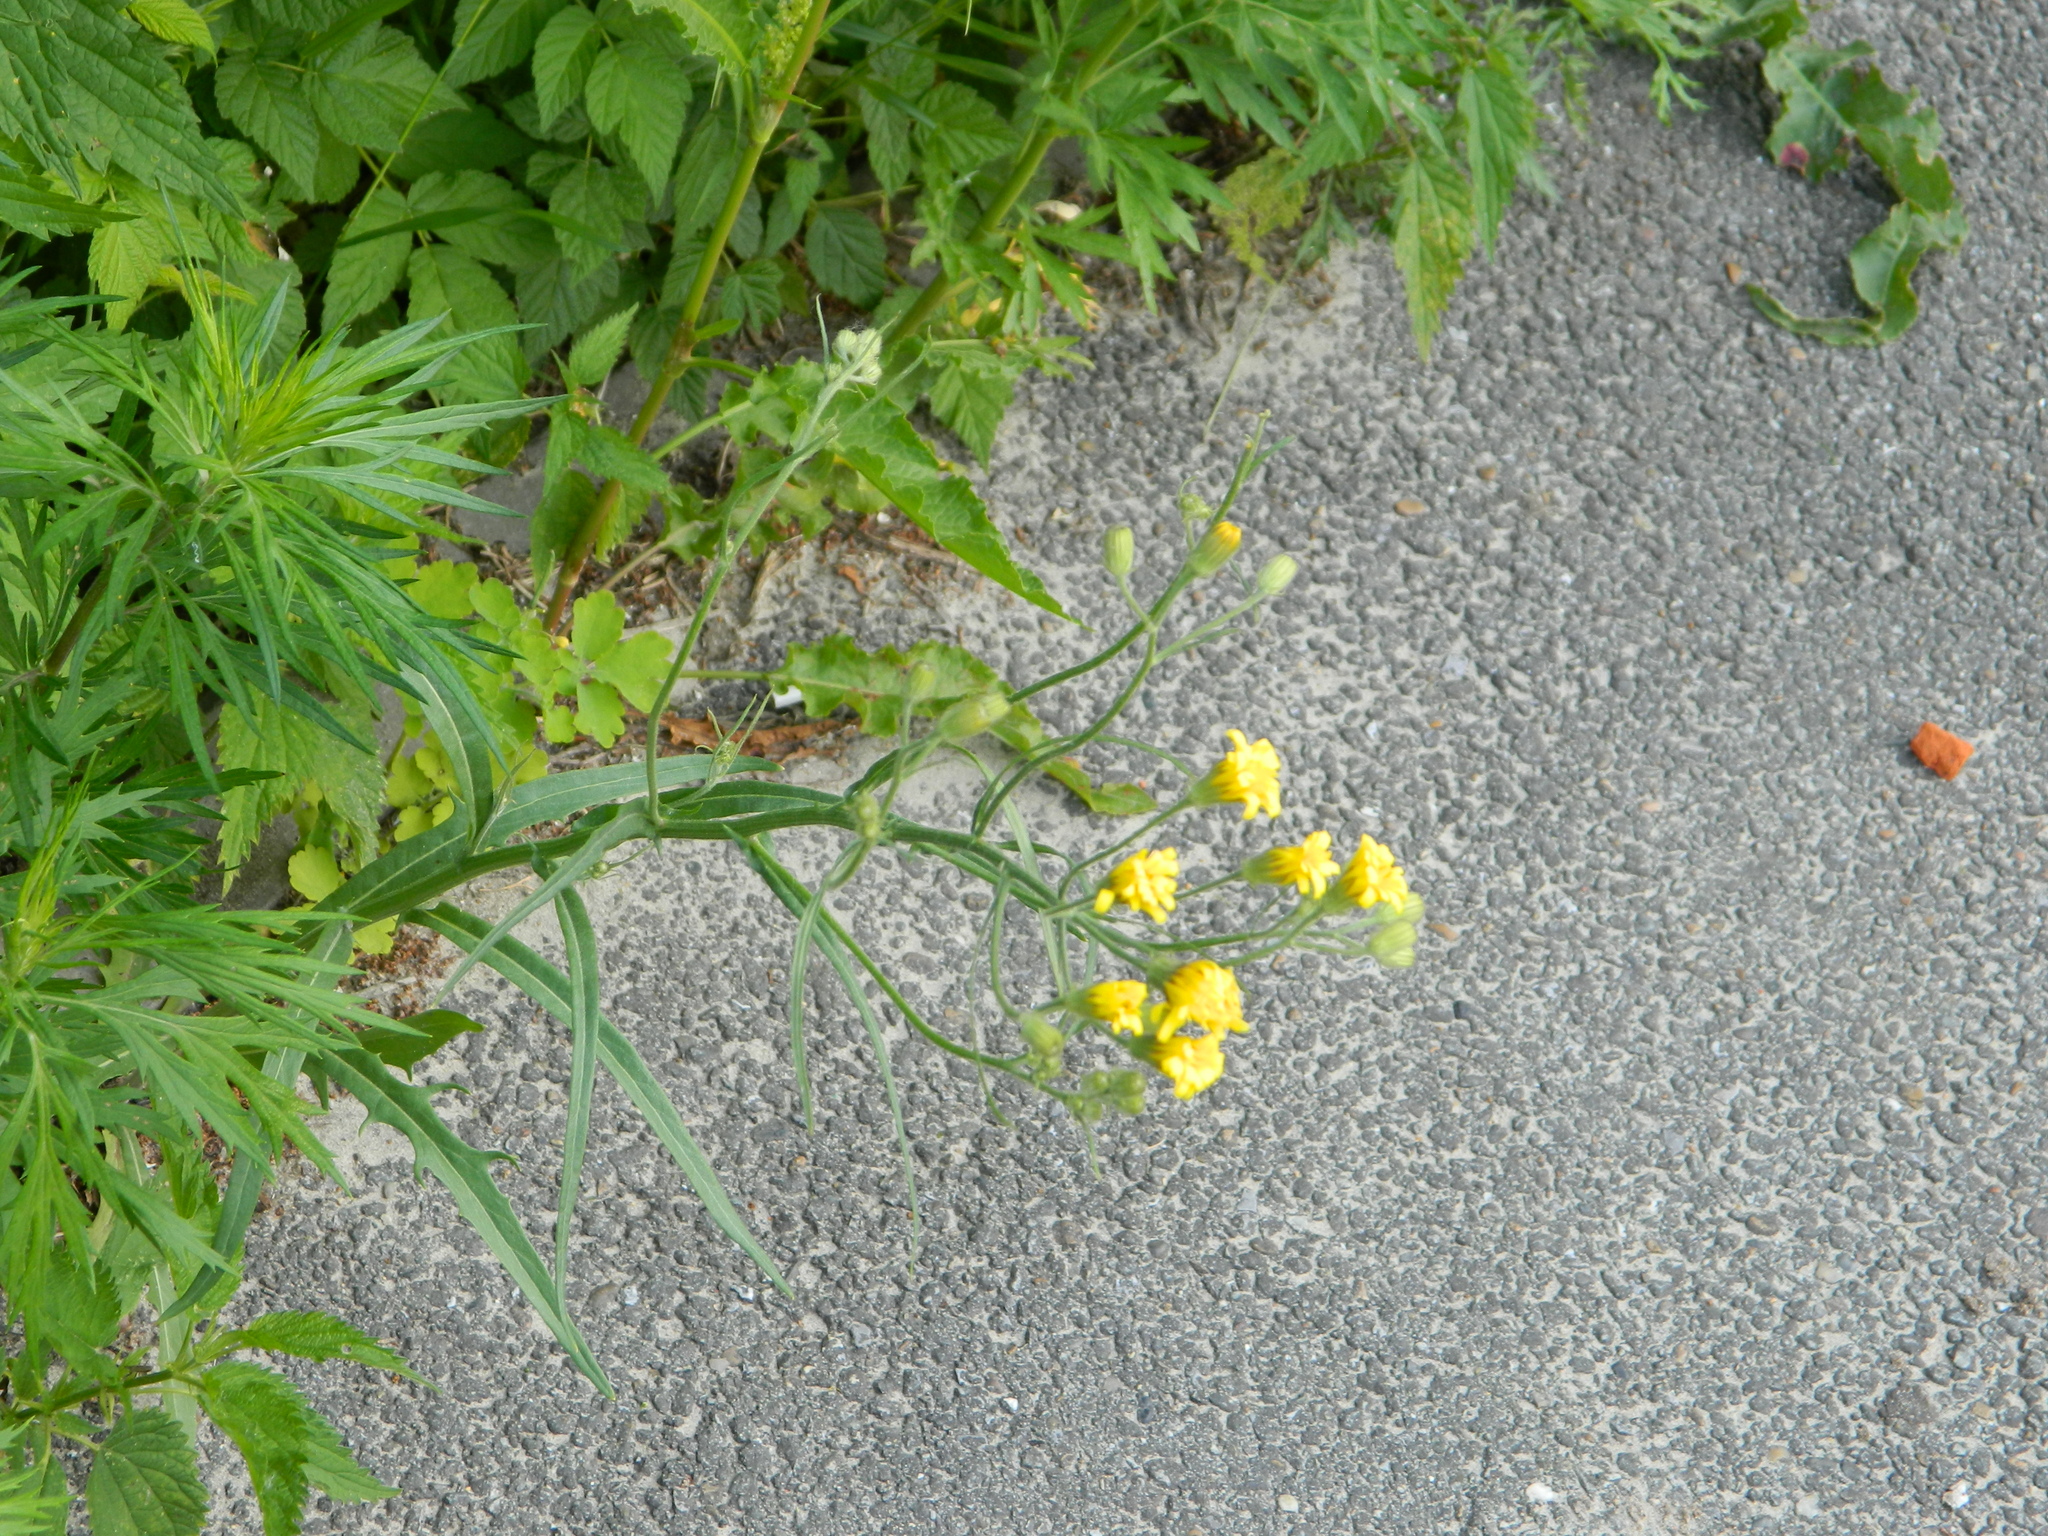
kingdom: Plantae
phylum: Tracheophyta
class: Magnoliopsida
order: Asterales
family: Asteraceae
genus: Crepis
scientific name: Crepis tectorum
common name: Narrow-leaved hawk's-beard
